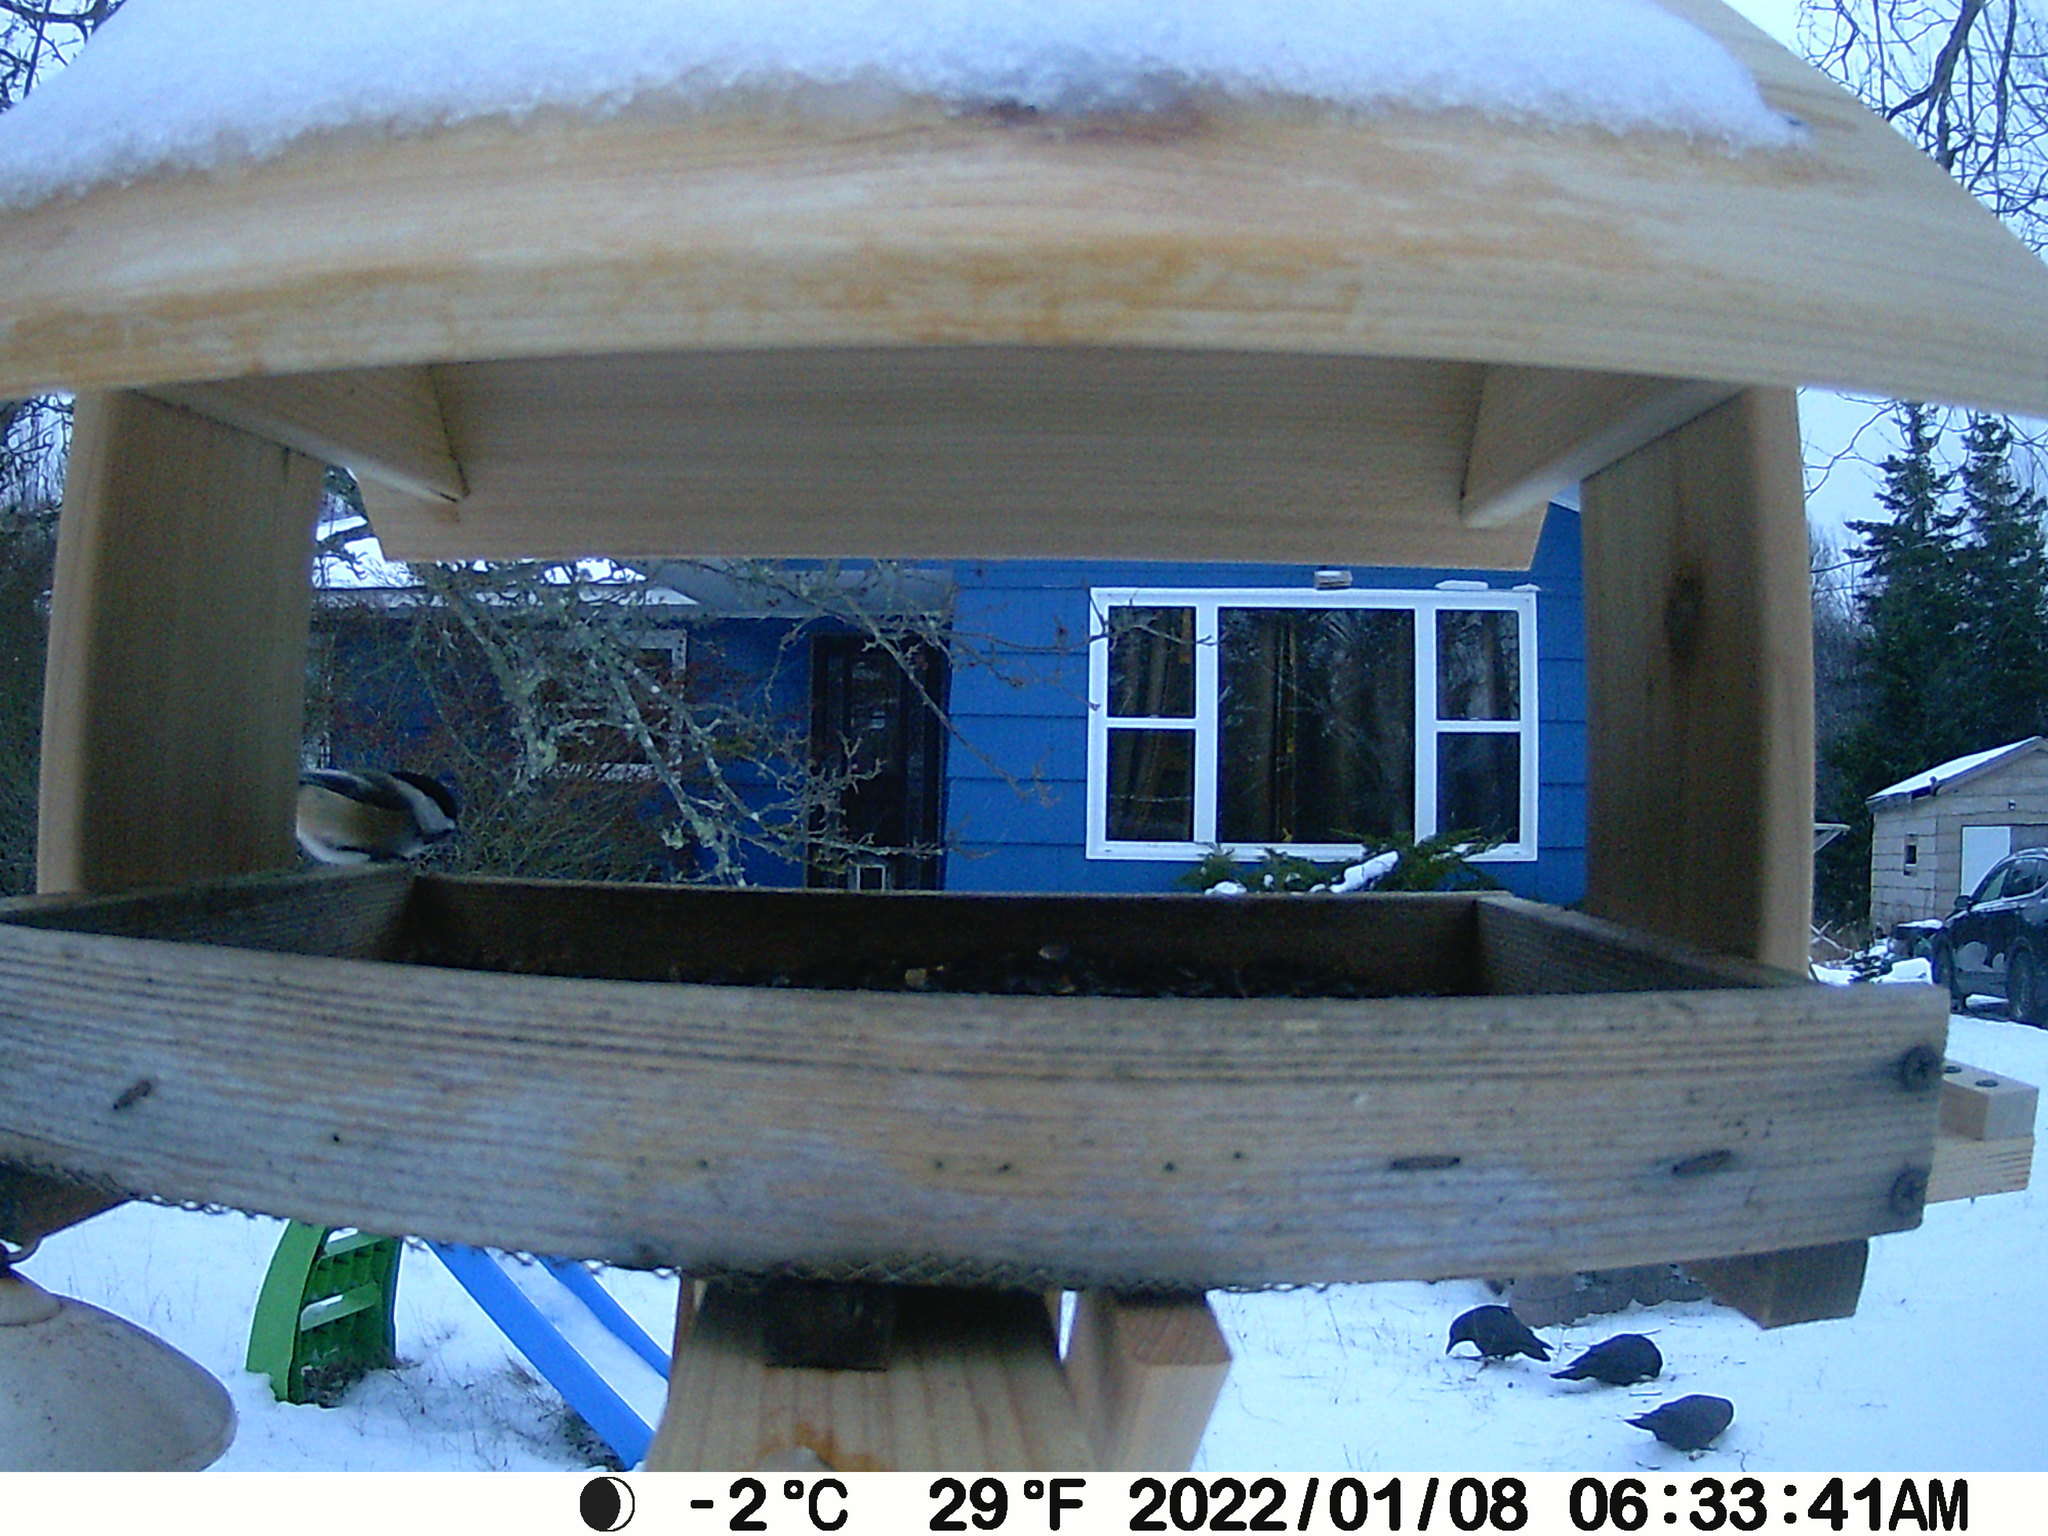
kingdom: Animalia
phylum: Chordata
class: Aves
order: Passeriformes
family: Paridae
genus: Poecile
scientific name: Poecile atricapillus
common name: Black-capped chickadee
